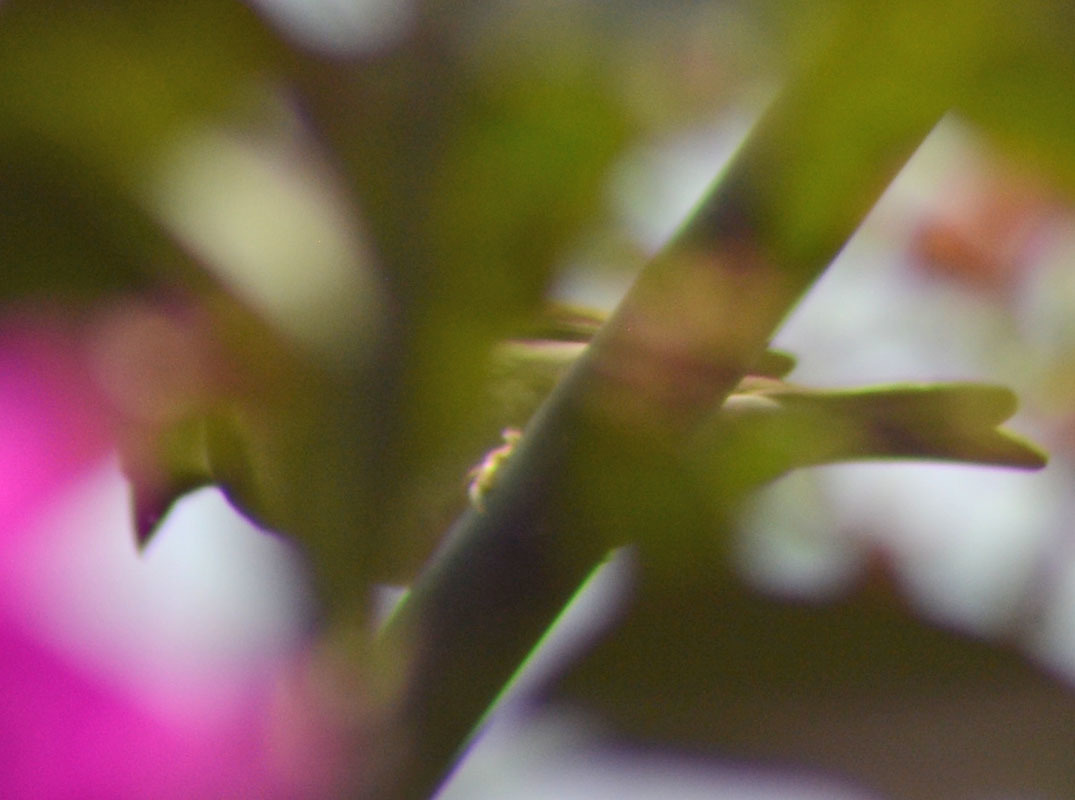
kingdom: Animalia
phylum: Chordata
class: Aves
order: Passeriformes
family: Passeridae
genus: Passer
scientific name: Passer domesticus
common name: House sparrow
